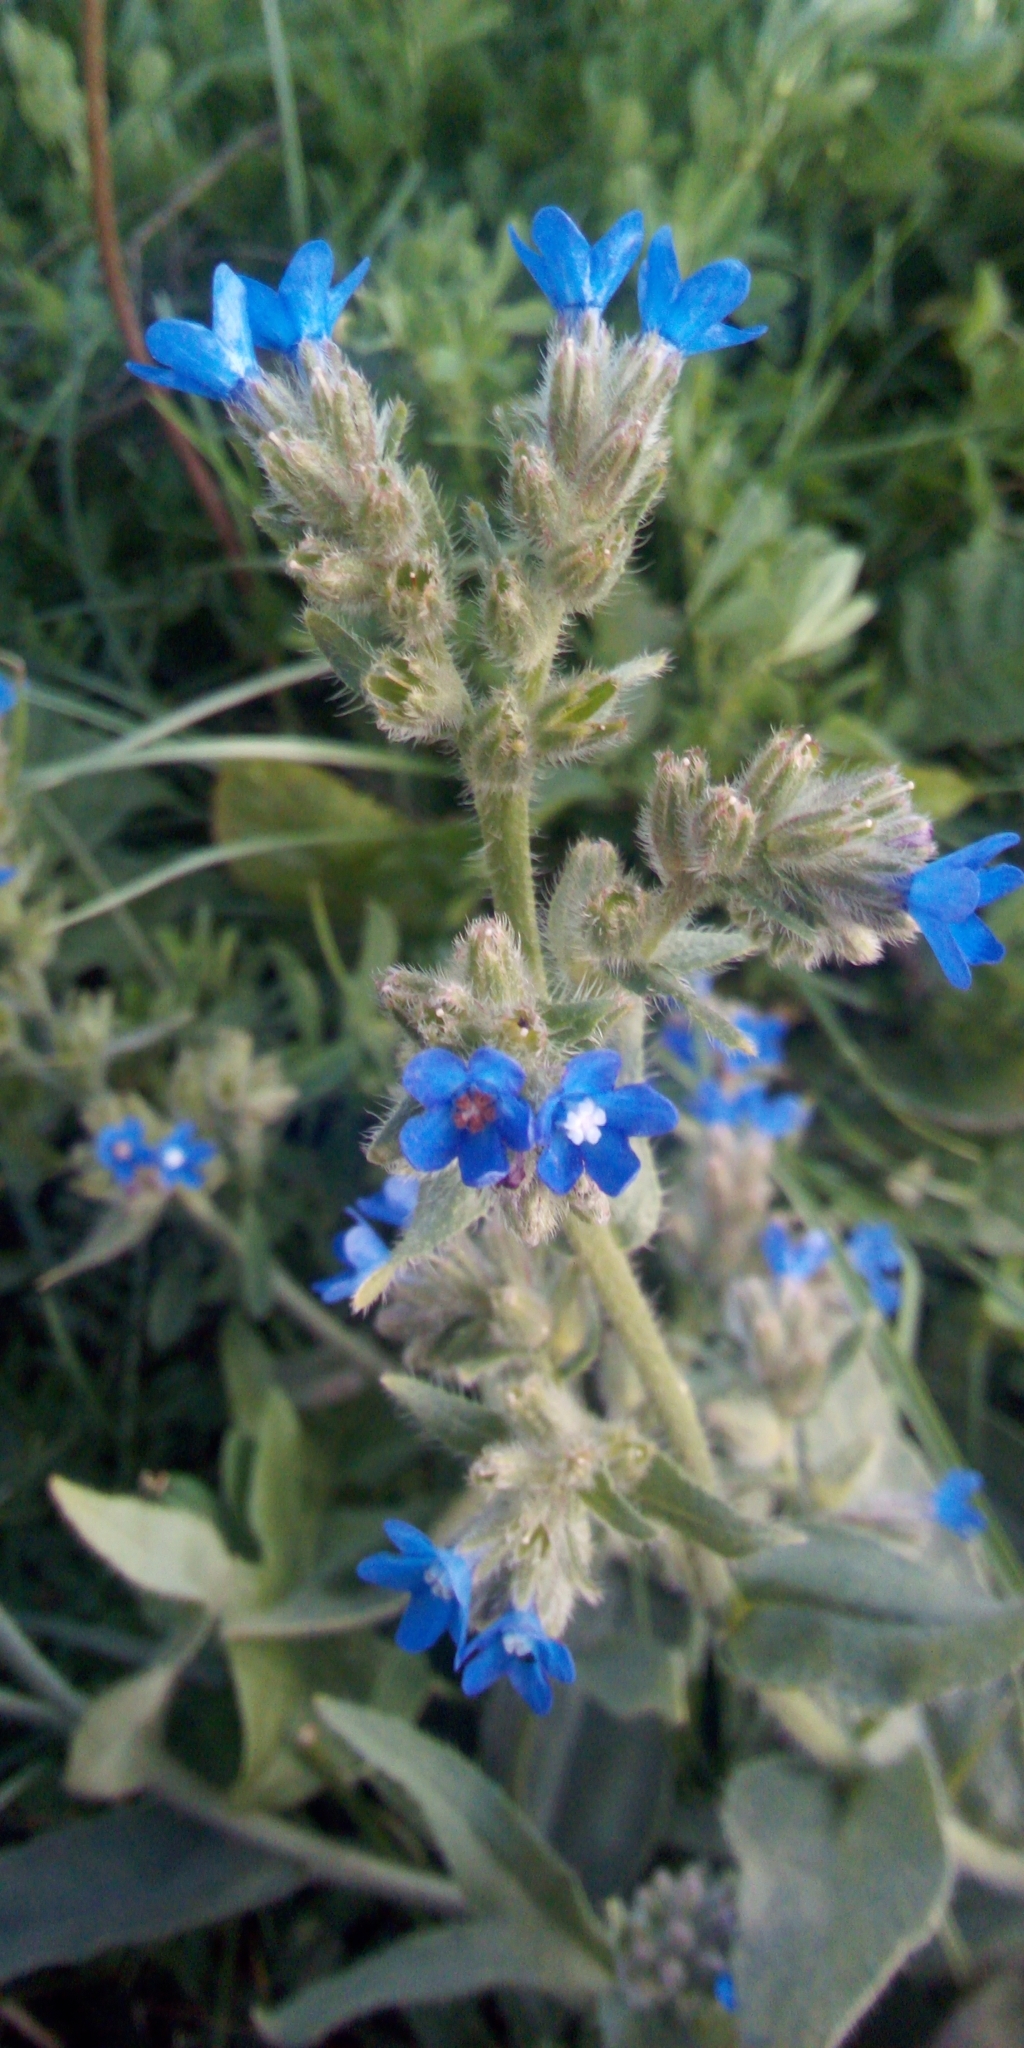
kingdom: Plantae
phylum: Tracheophyta
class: Magnoliopsida
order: Boraginales
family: Boraginaceae
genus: Anchusa
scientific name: Anchusa officinalis
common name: Alkanet
